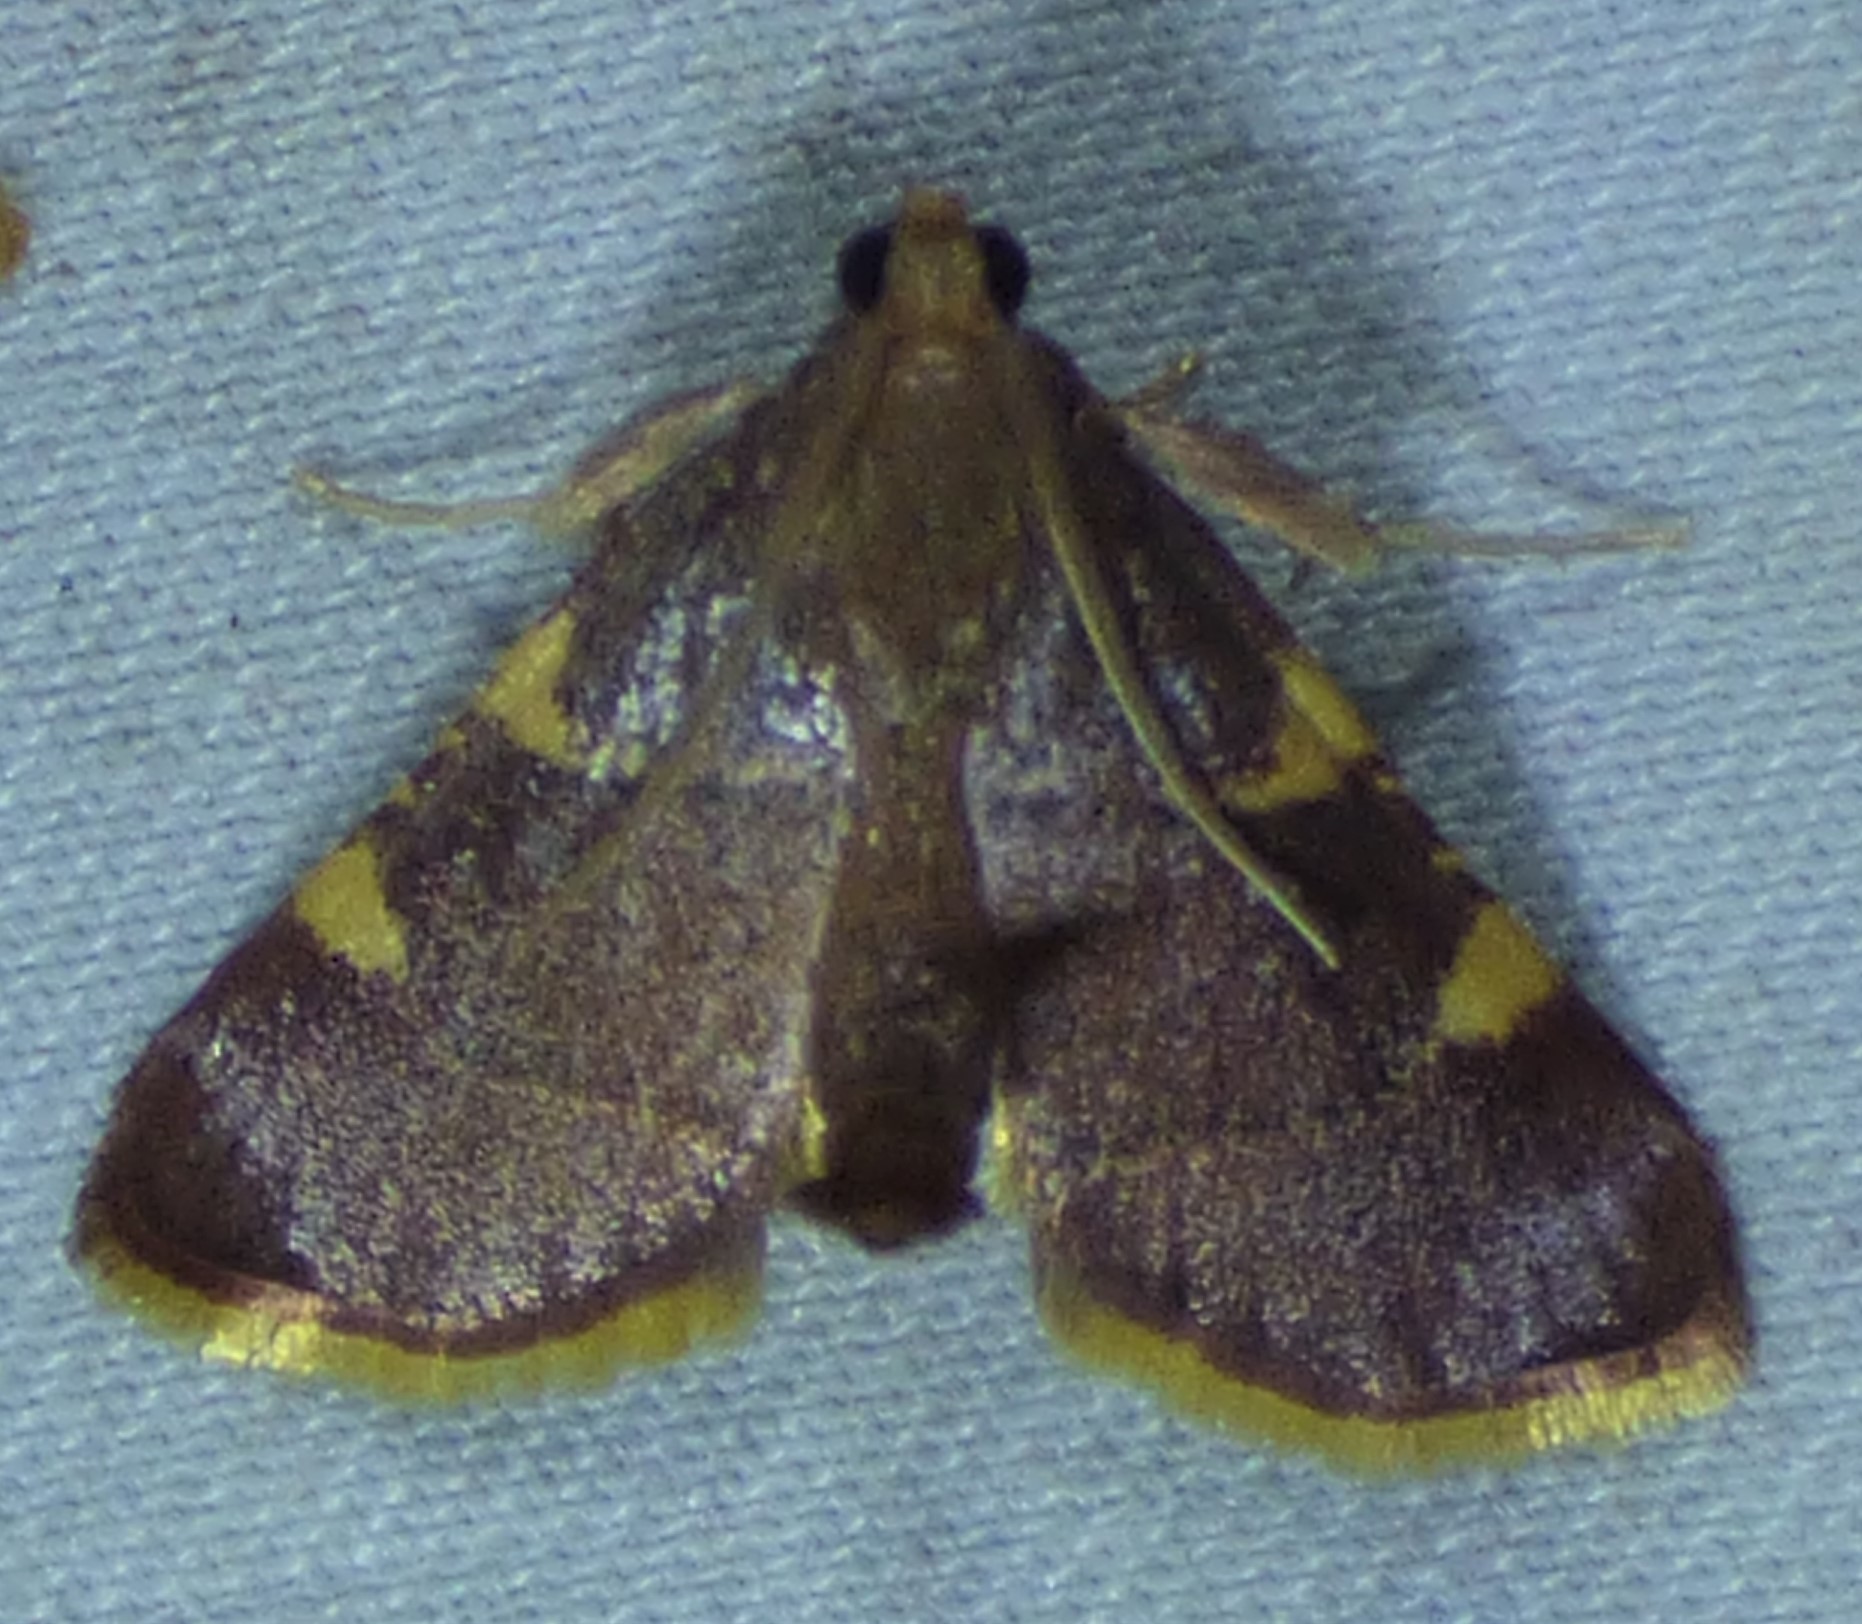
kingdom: Animalia
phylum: Arthropoda
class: Insecta
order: Lepidoptera
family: Pyralidae
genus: Hypsopygia
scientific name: Hypsopygia olinalis
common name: Yellow-fringed dolichomia moth
